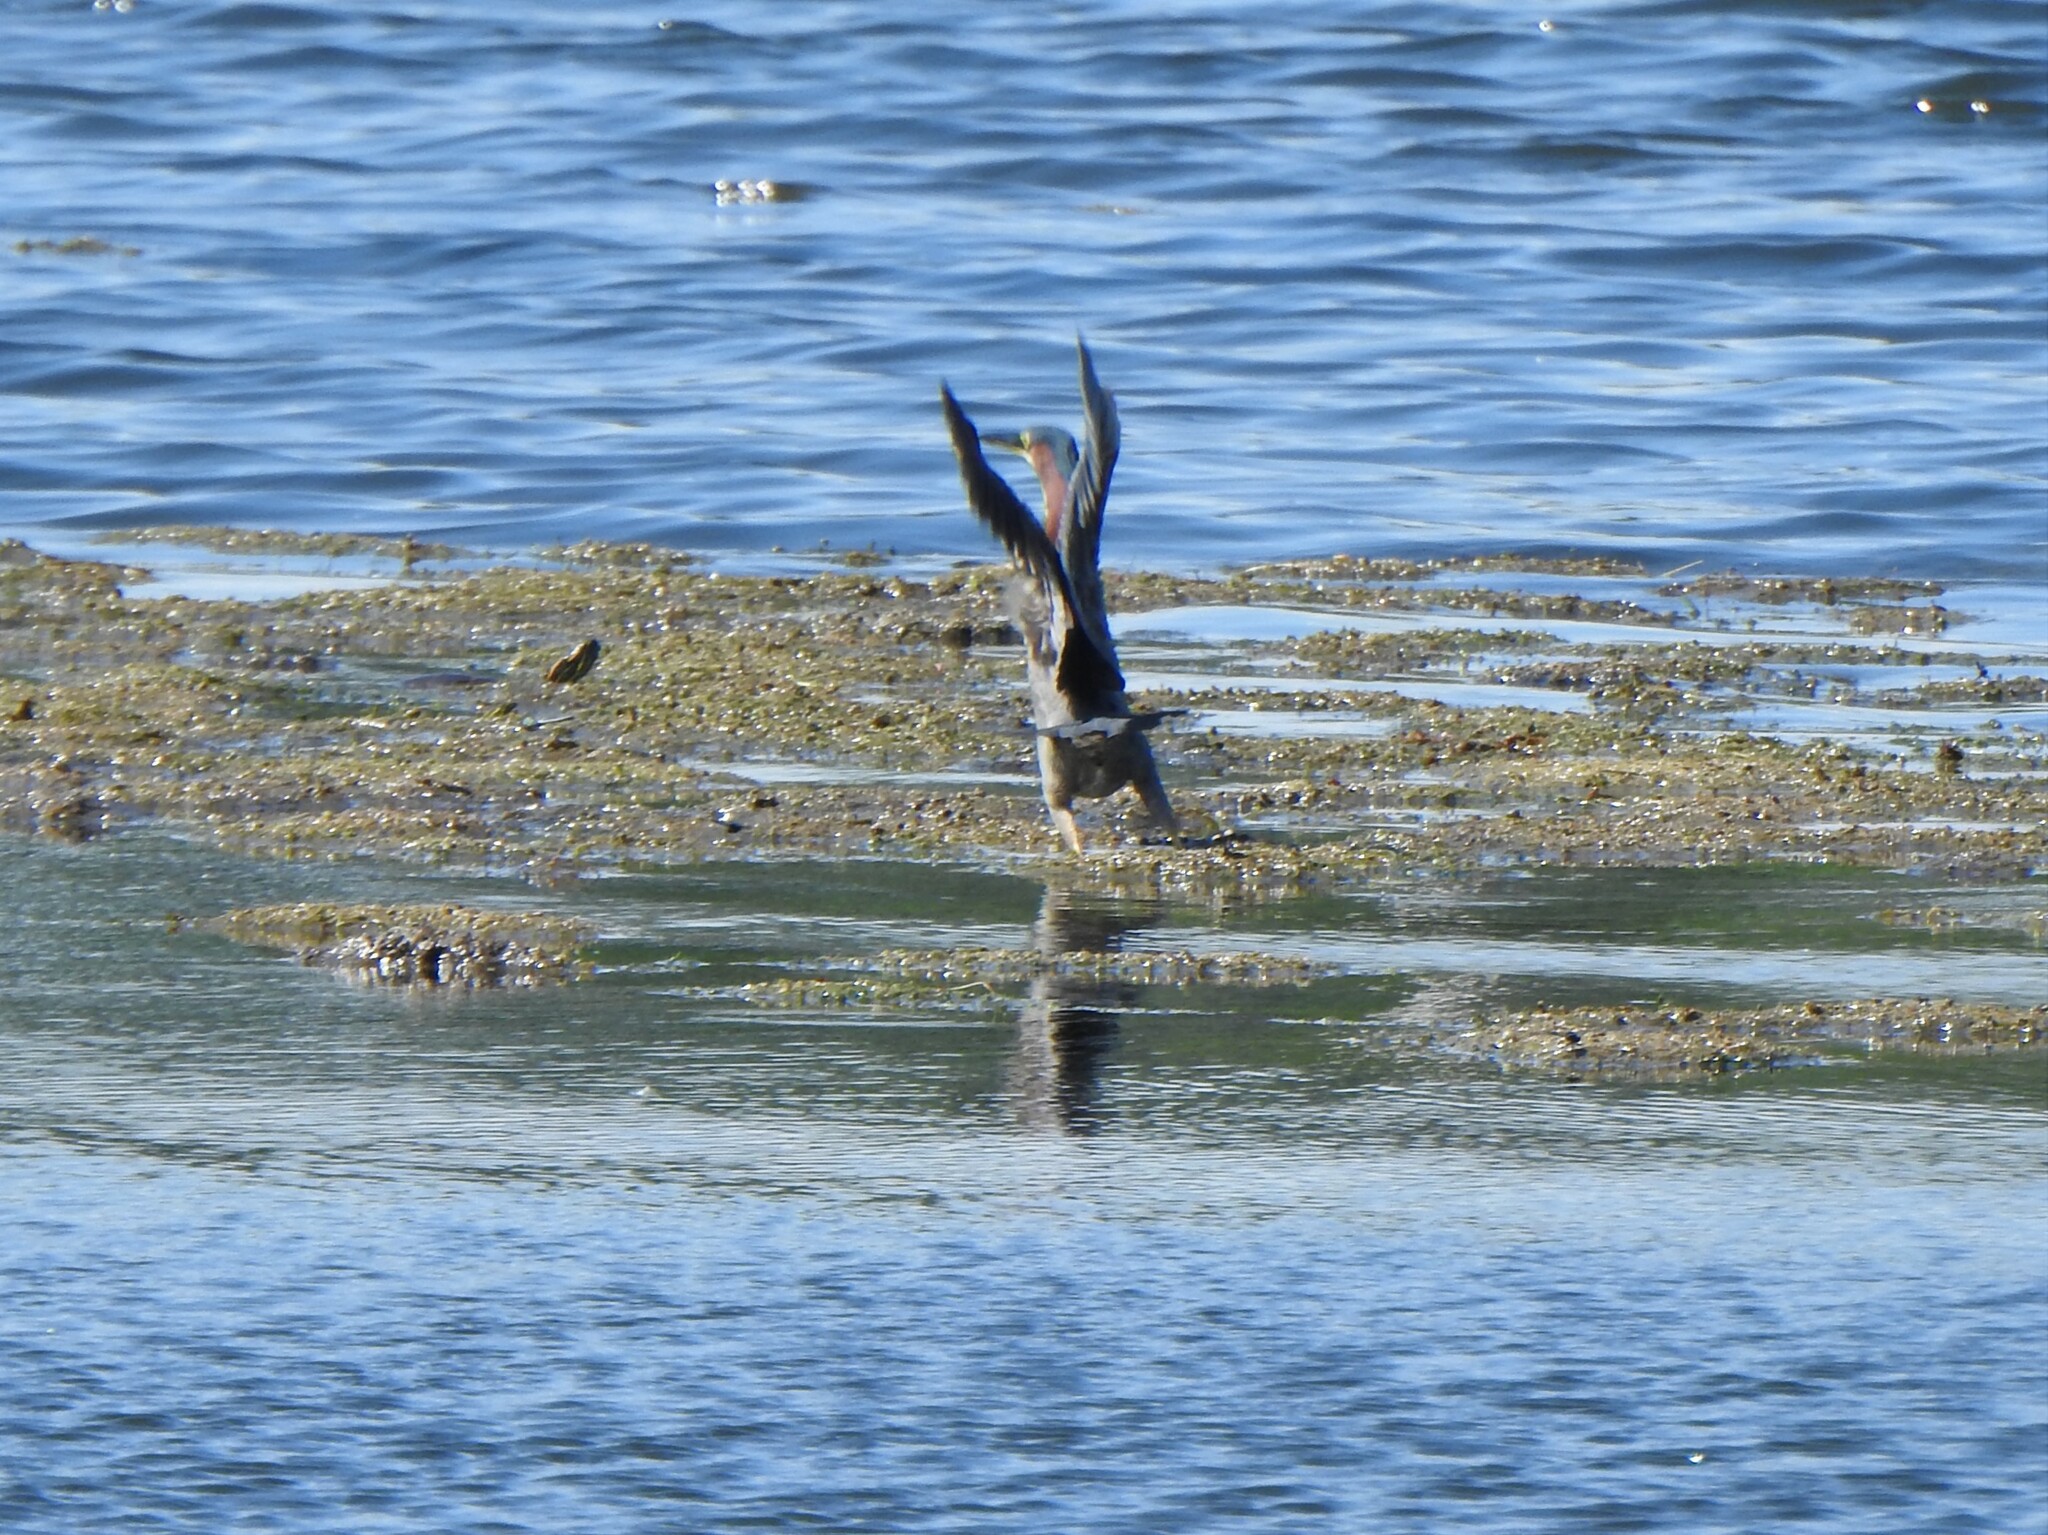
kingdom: Animalia
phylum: Chordata
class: Aves
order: Pelecaniformes
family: Ardeidae
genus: Butorides
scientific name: Butorides virescens
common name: Green heron
